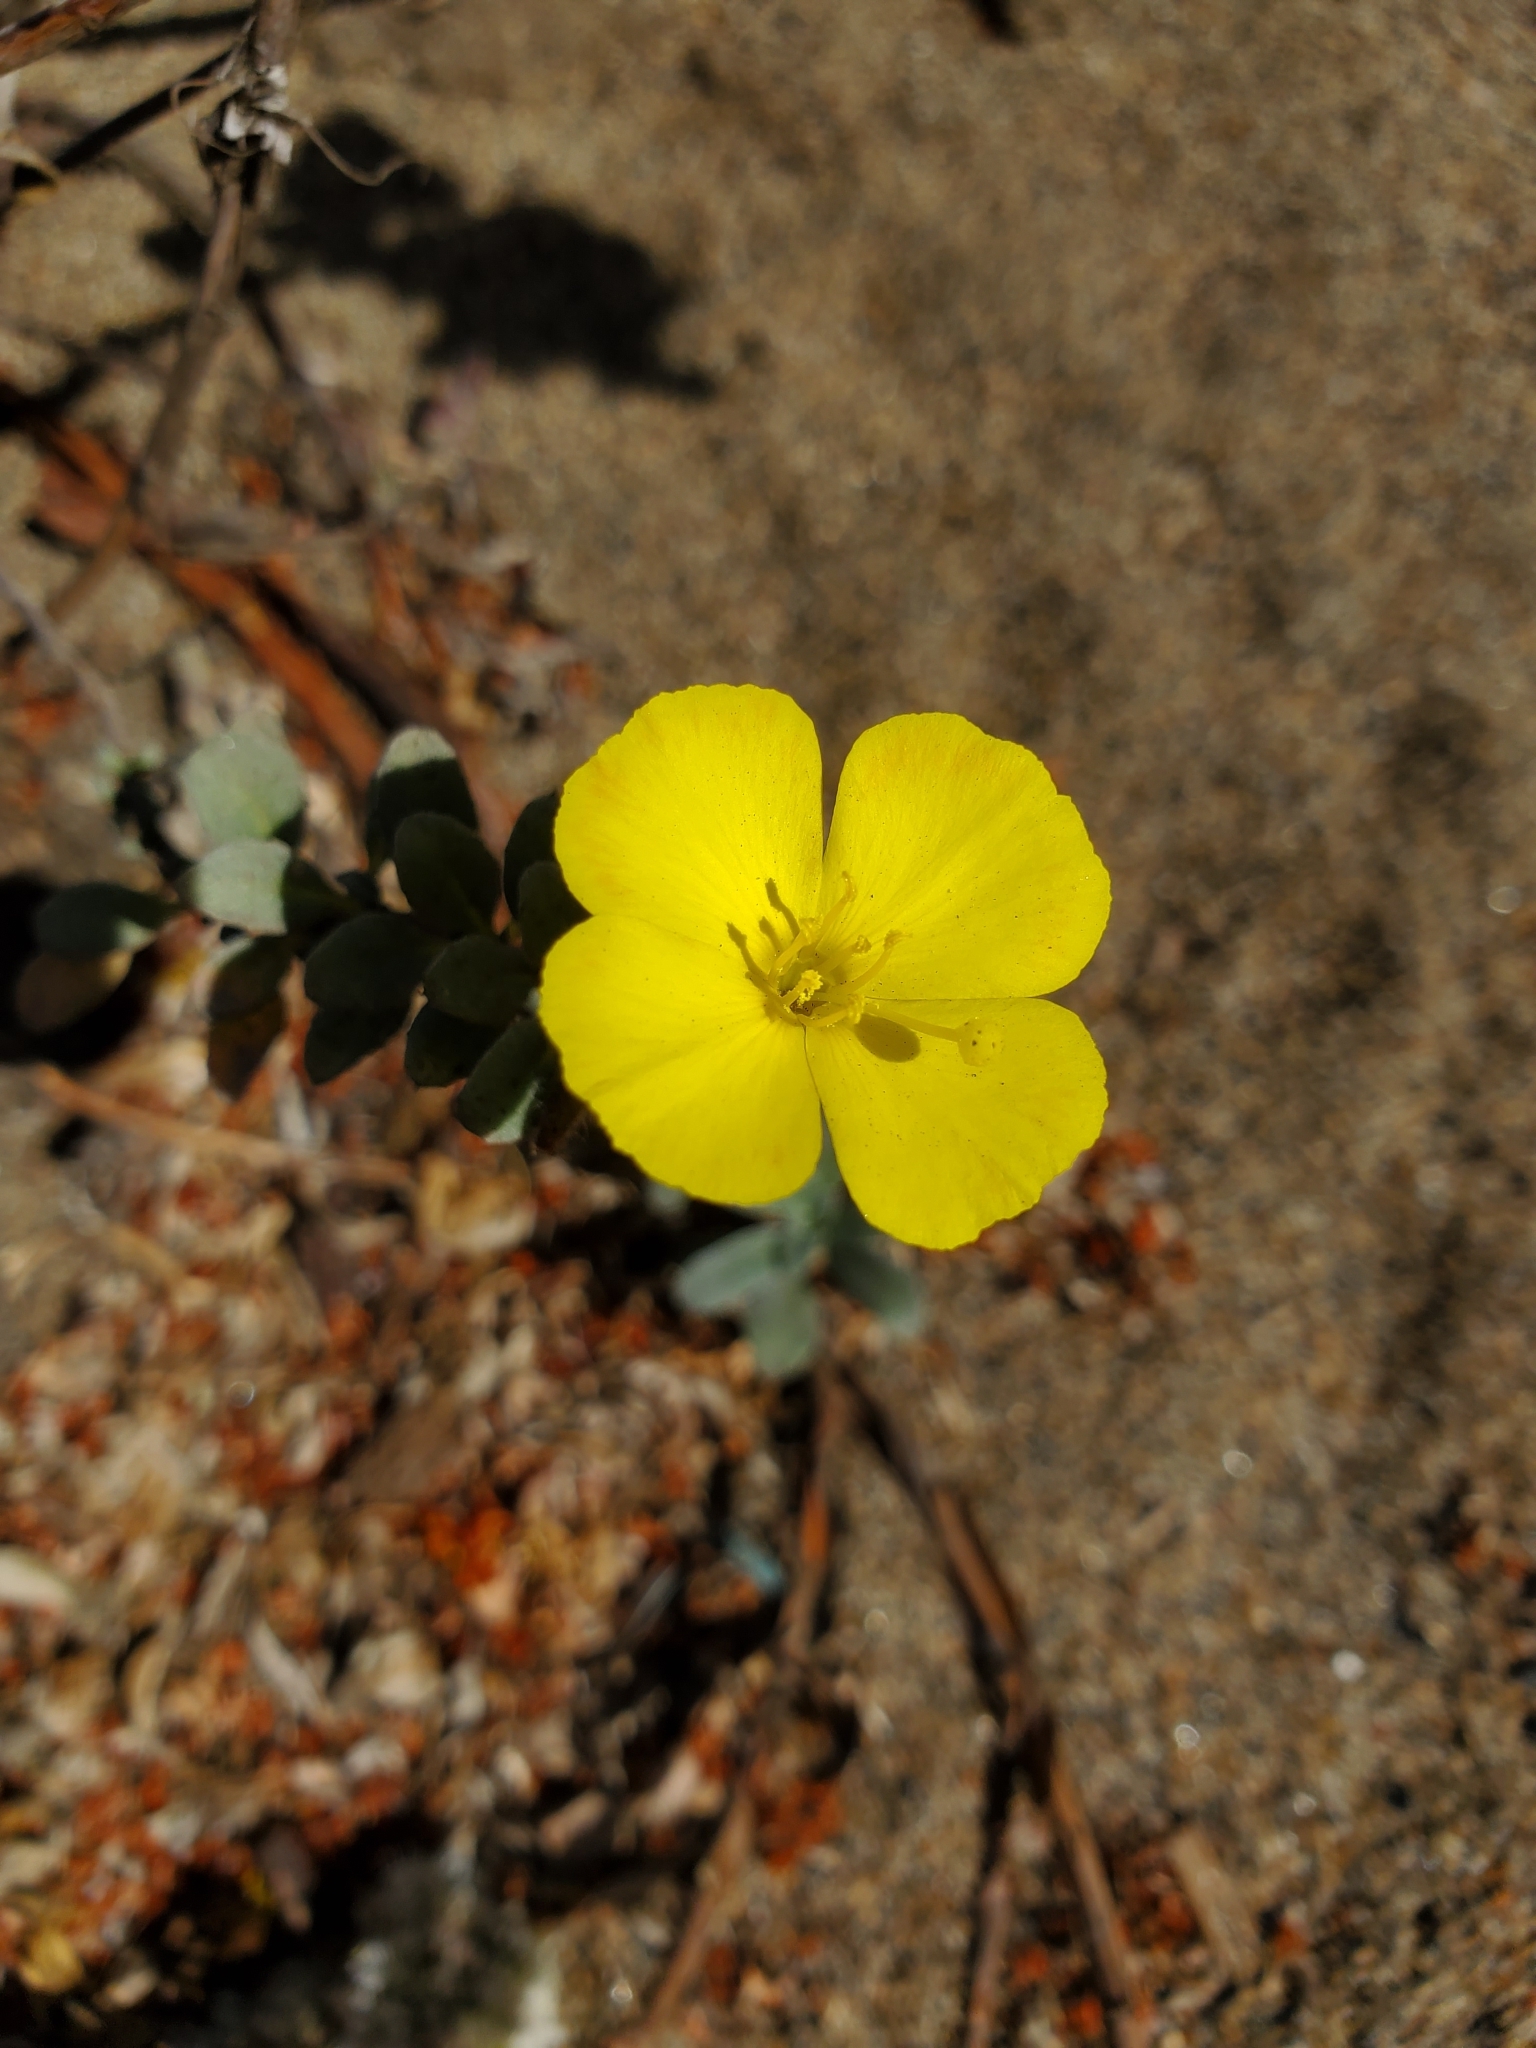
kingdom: Plantae
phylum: Tracheophyta
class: Magnoliopsida
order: Myrtales
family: Onagraceae
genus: Camissoniopsis
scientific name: Camissoniopsis cheiranthifolia
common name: Beach suncup
